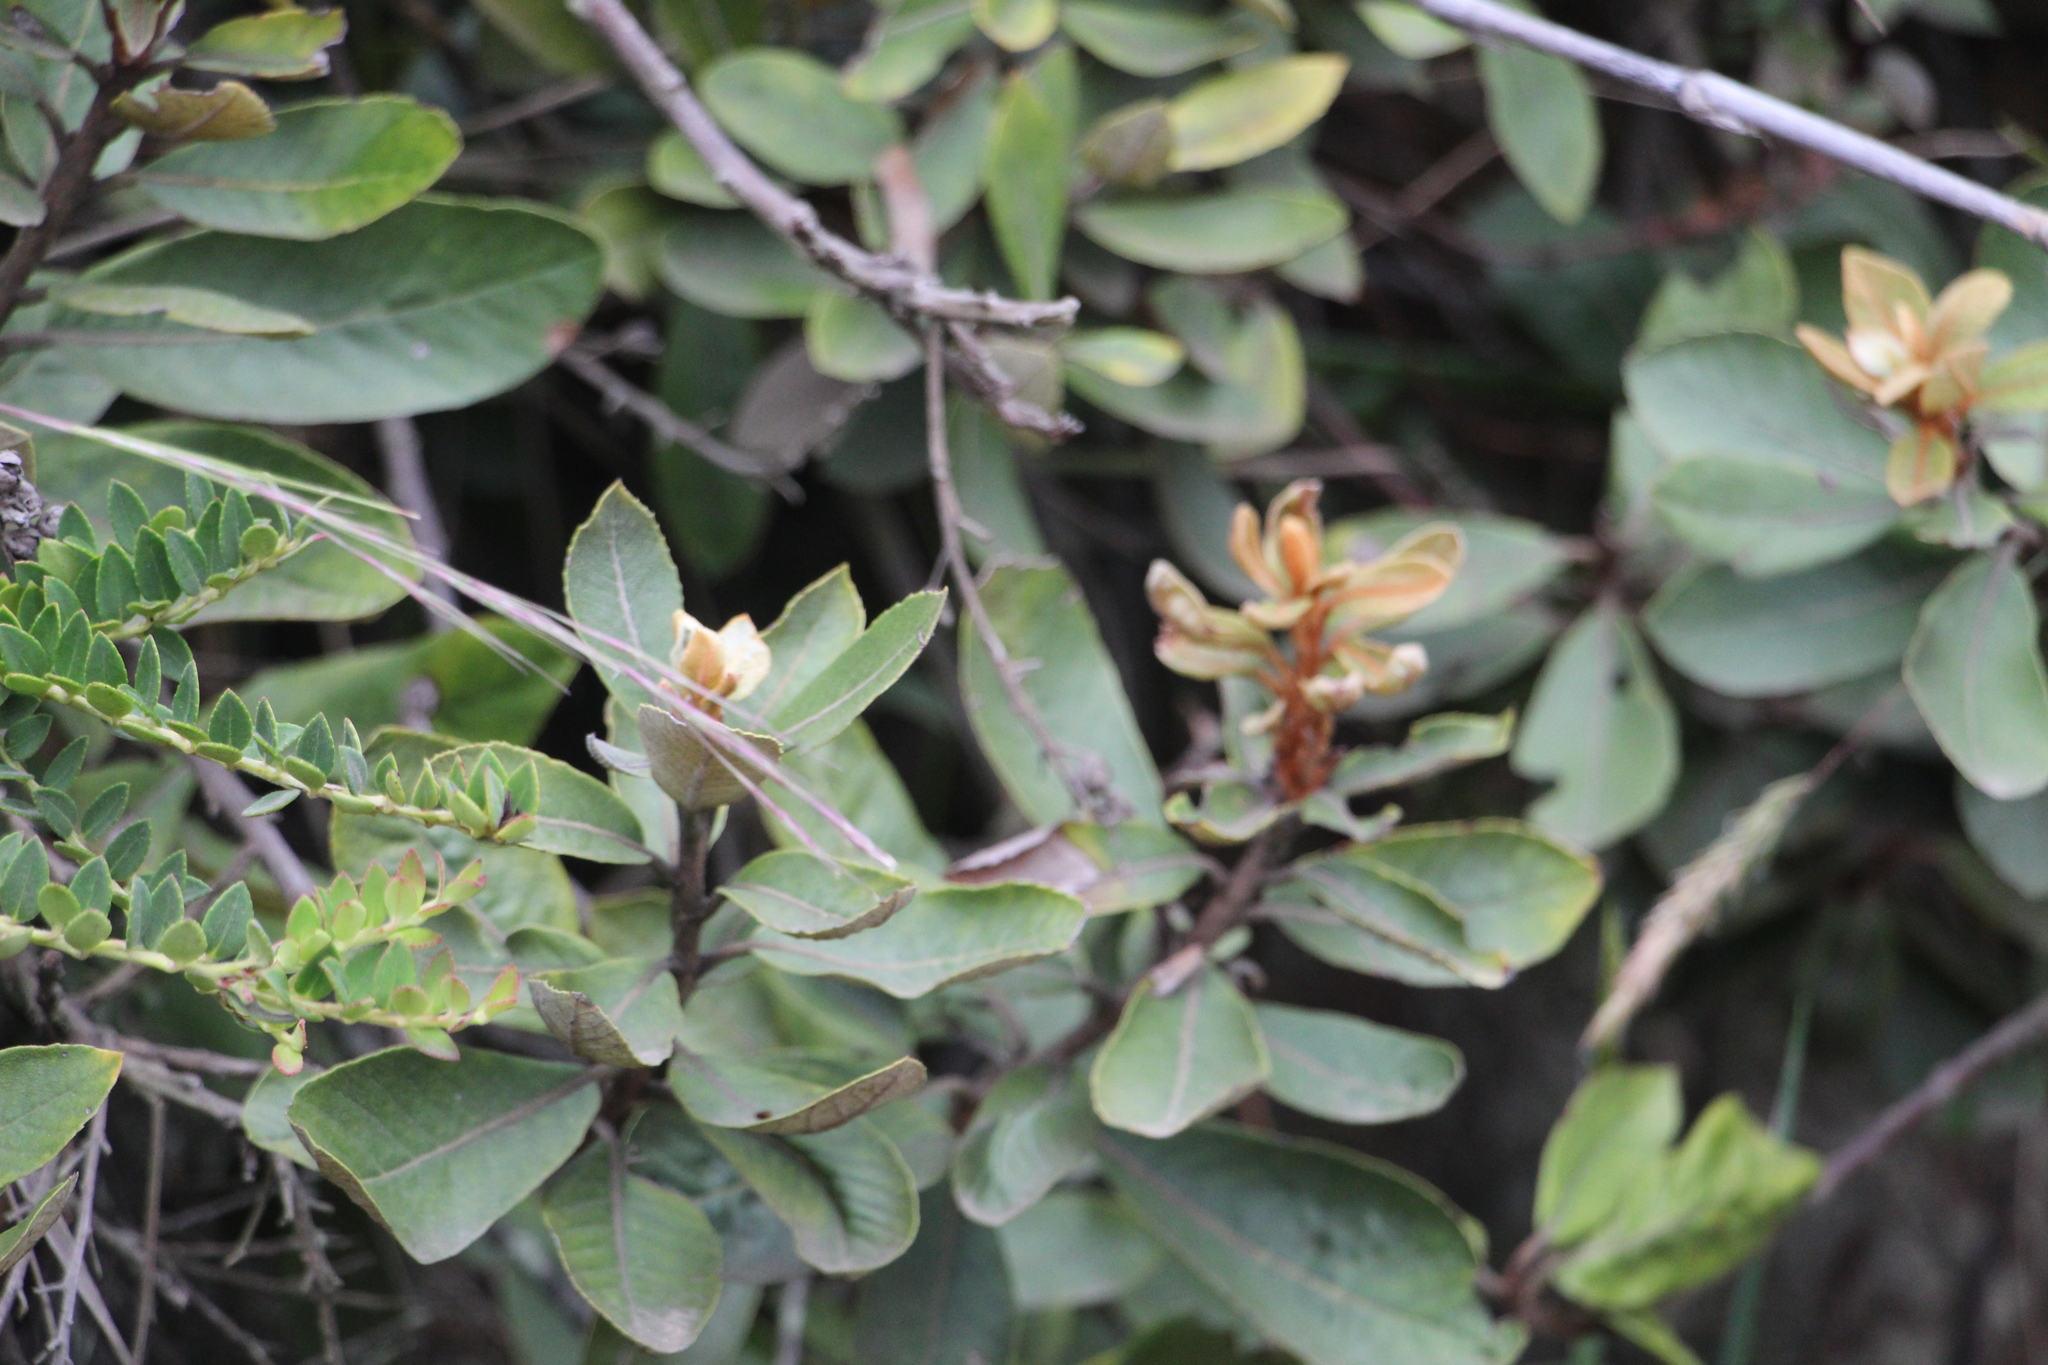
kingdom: Plantae
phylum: Tracheophyta
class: Magnoliopsida
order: Ericales
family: Clethraceae
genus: Clethra
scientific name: Clethra fimbriata
